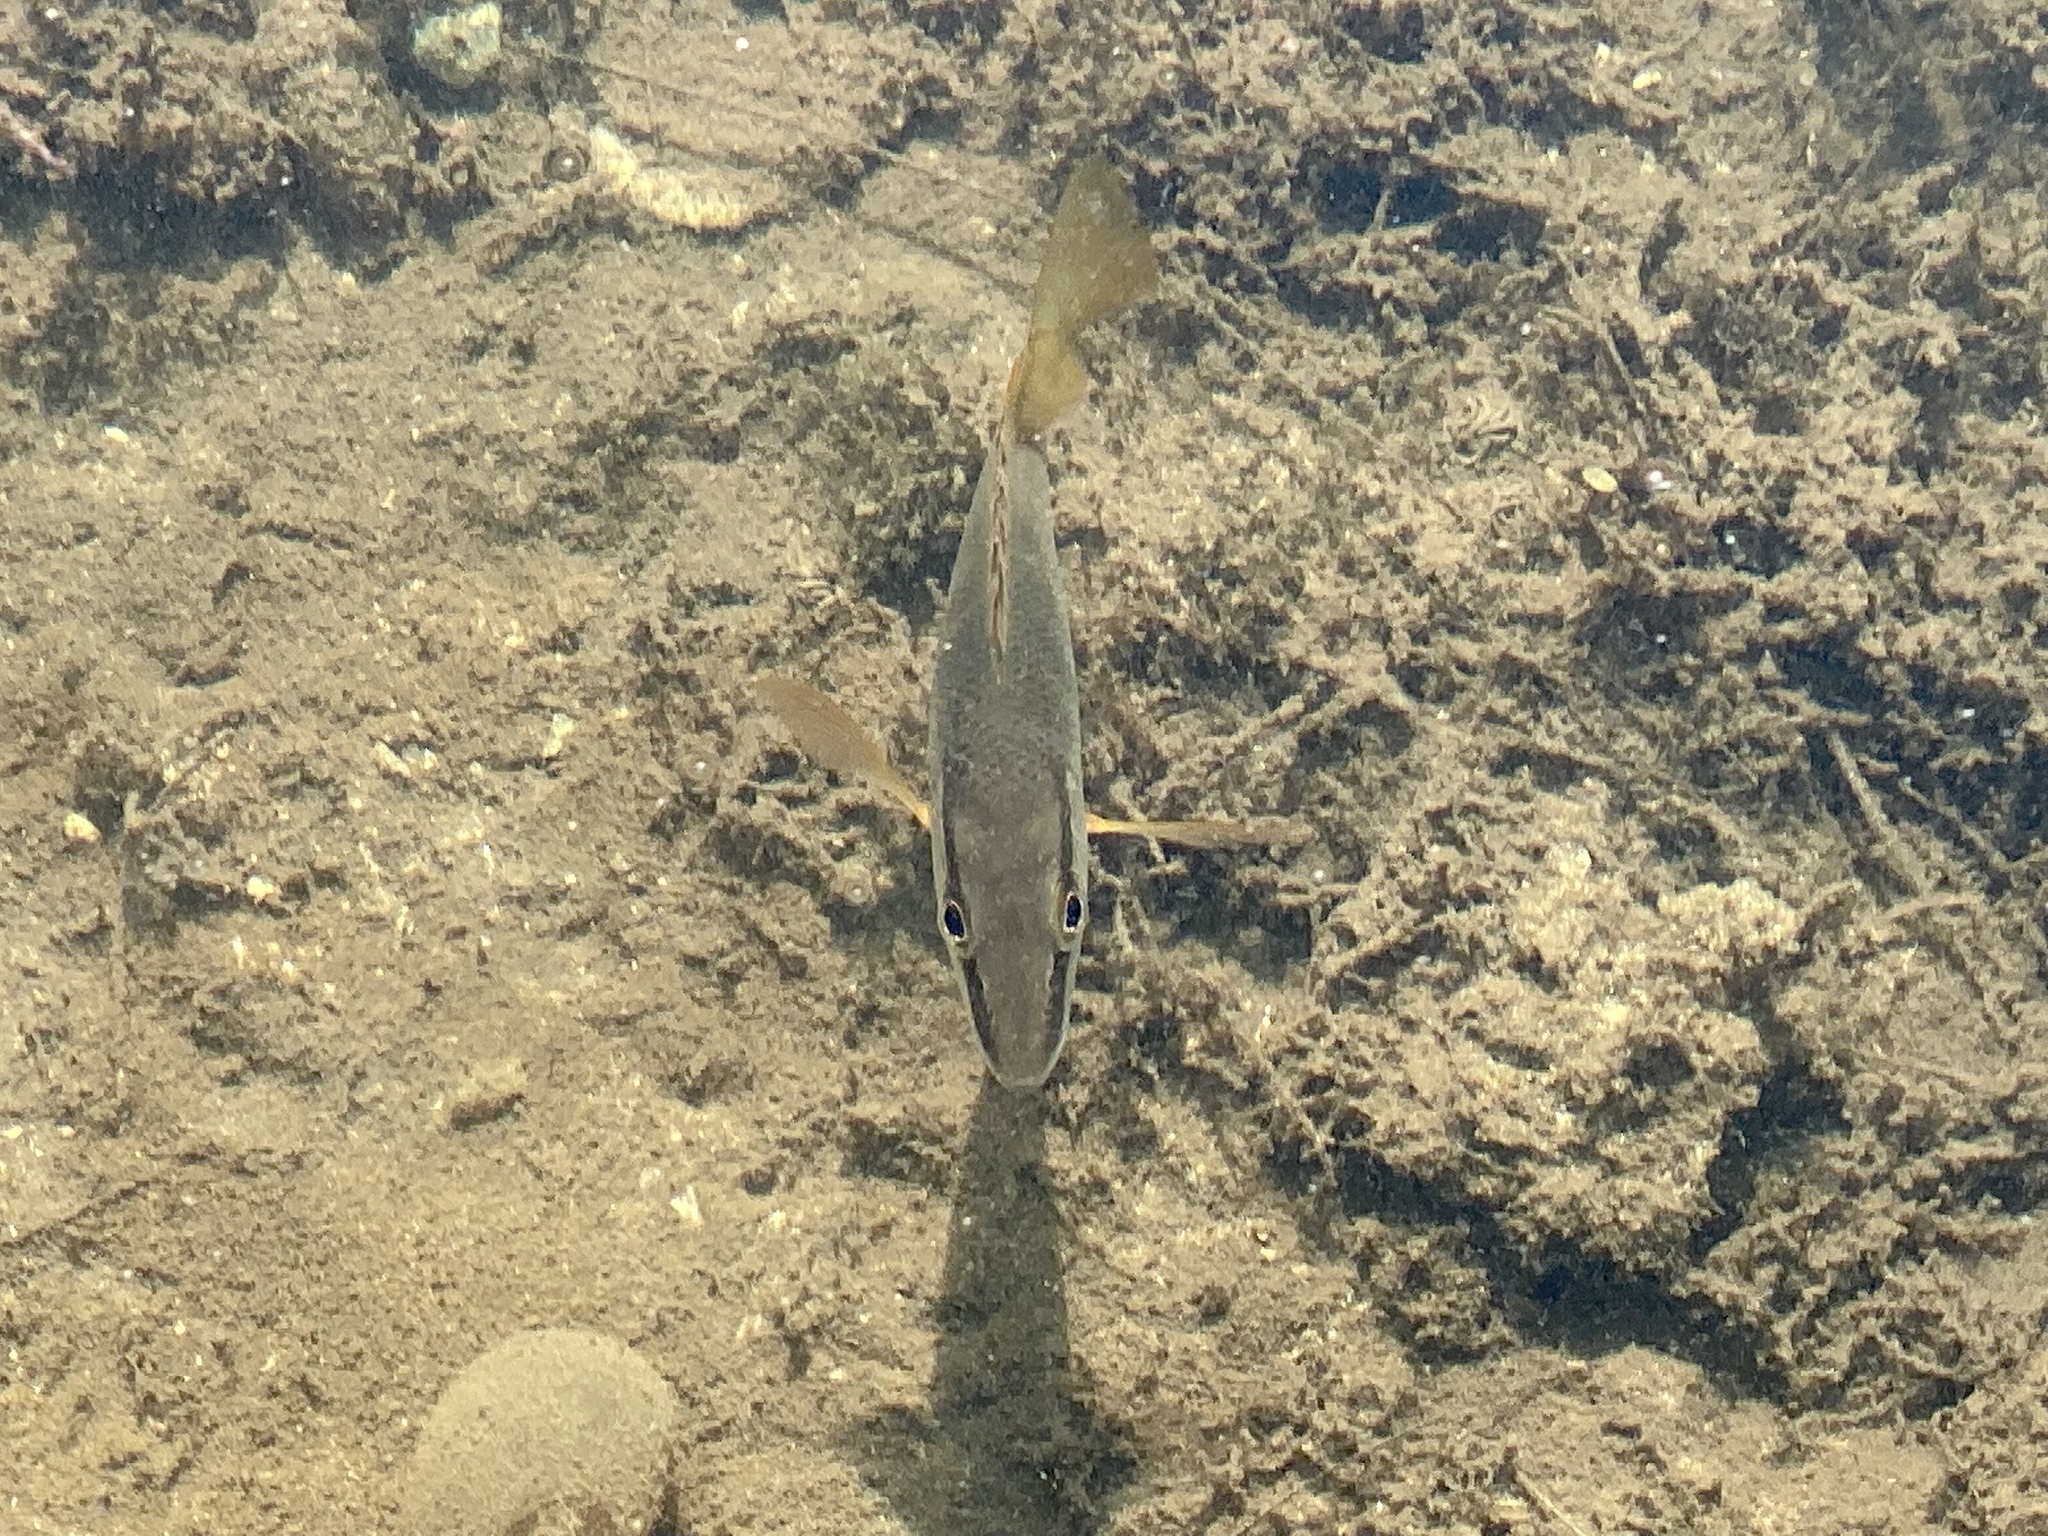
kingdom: Animalia
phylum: Chordata
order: Perciformes
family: Lutjanidae
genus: Lutjanus
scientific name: Lutjanus apodus
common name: Schoolmaster
